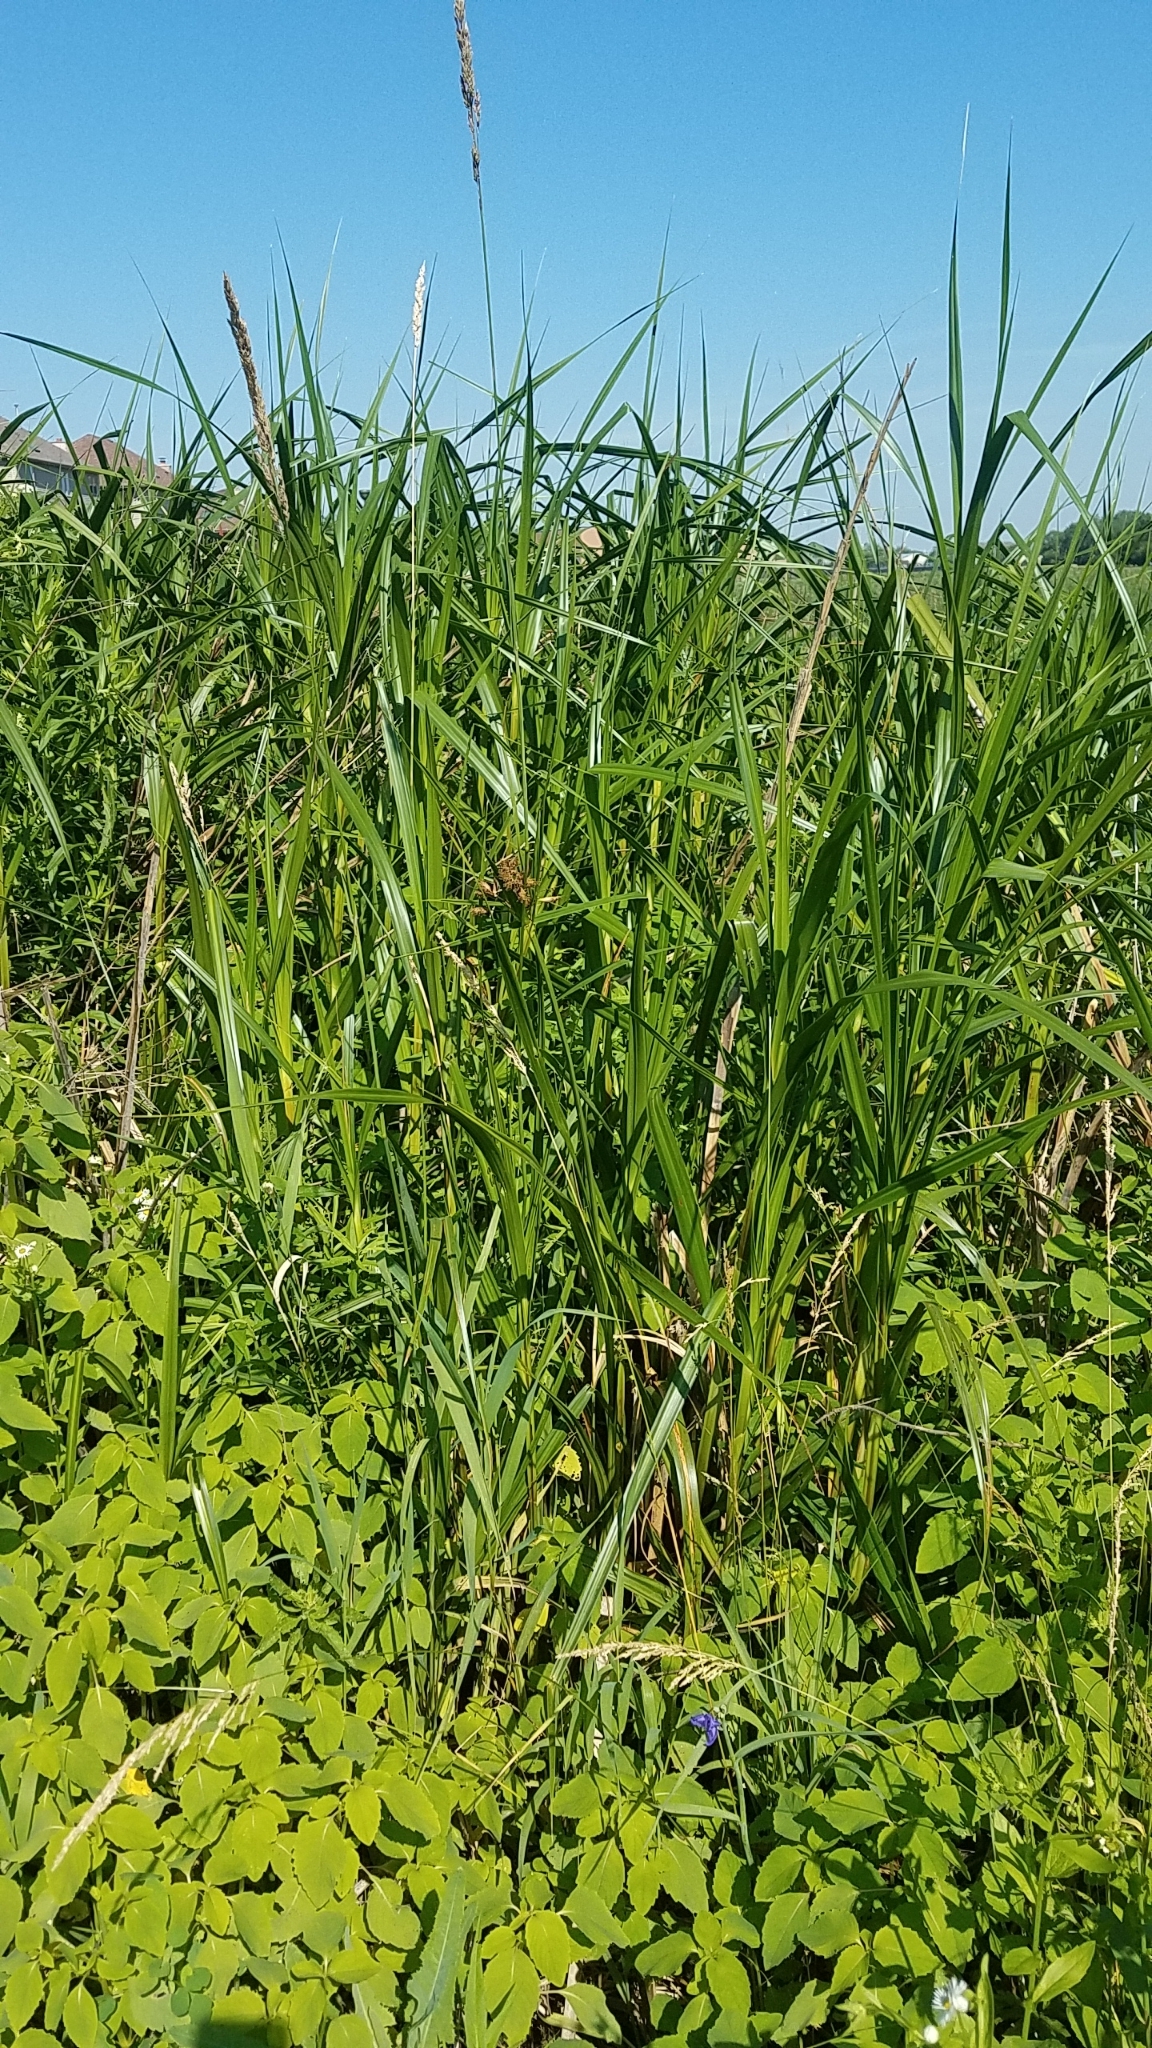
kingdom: Plantae
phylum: Tracheophyta
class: Liliopsida
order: Poales
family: Cyperaceae
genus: Bolboschoenus
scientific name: Bolboschoenus fluviatilis
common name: River bulrush
